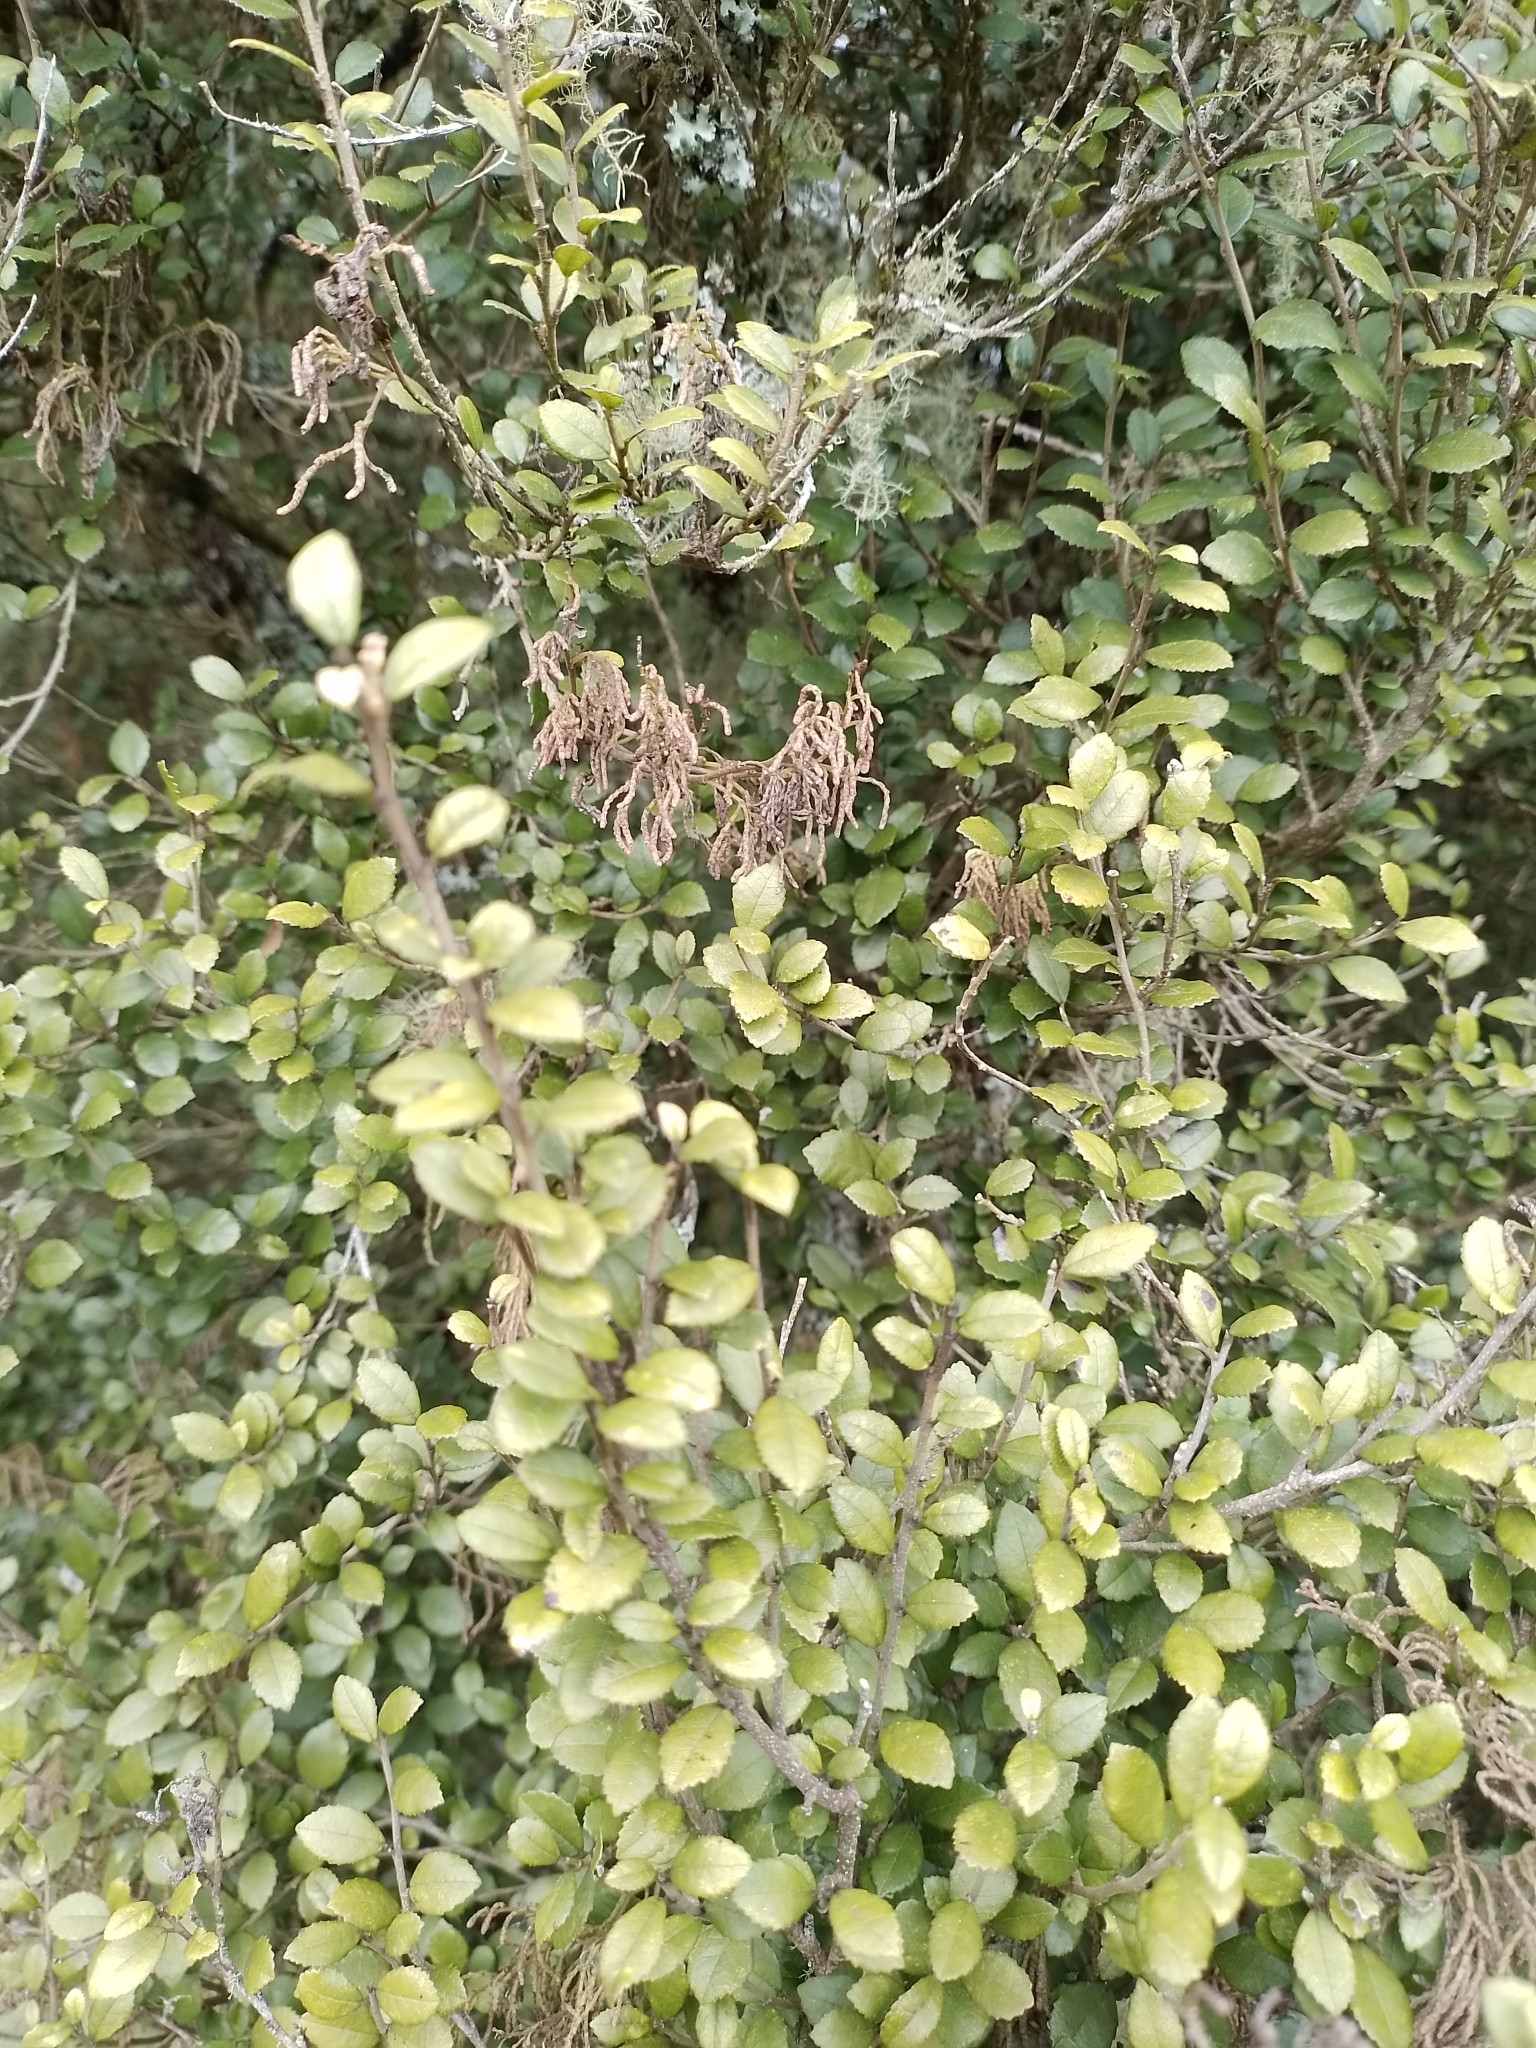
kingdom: Plantae
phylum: Tracheophyta
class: Magnoliopsida
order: Rosales
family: Moraceae
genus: Paratrophis
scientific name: Paratrophis microphylla
